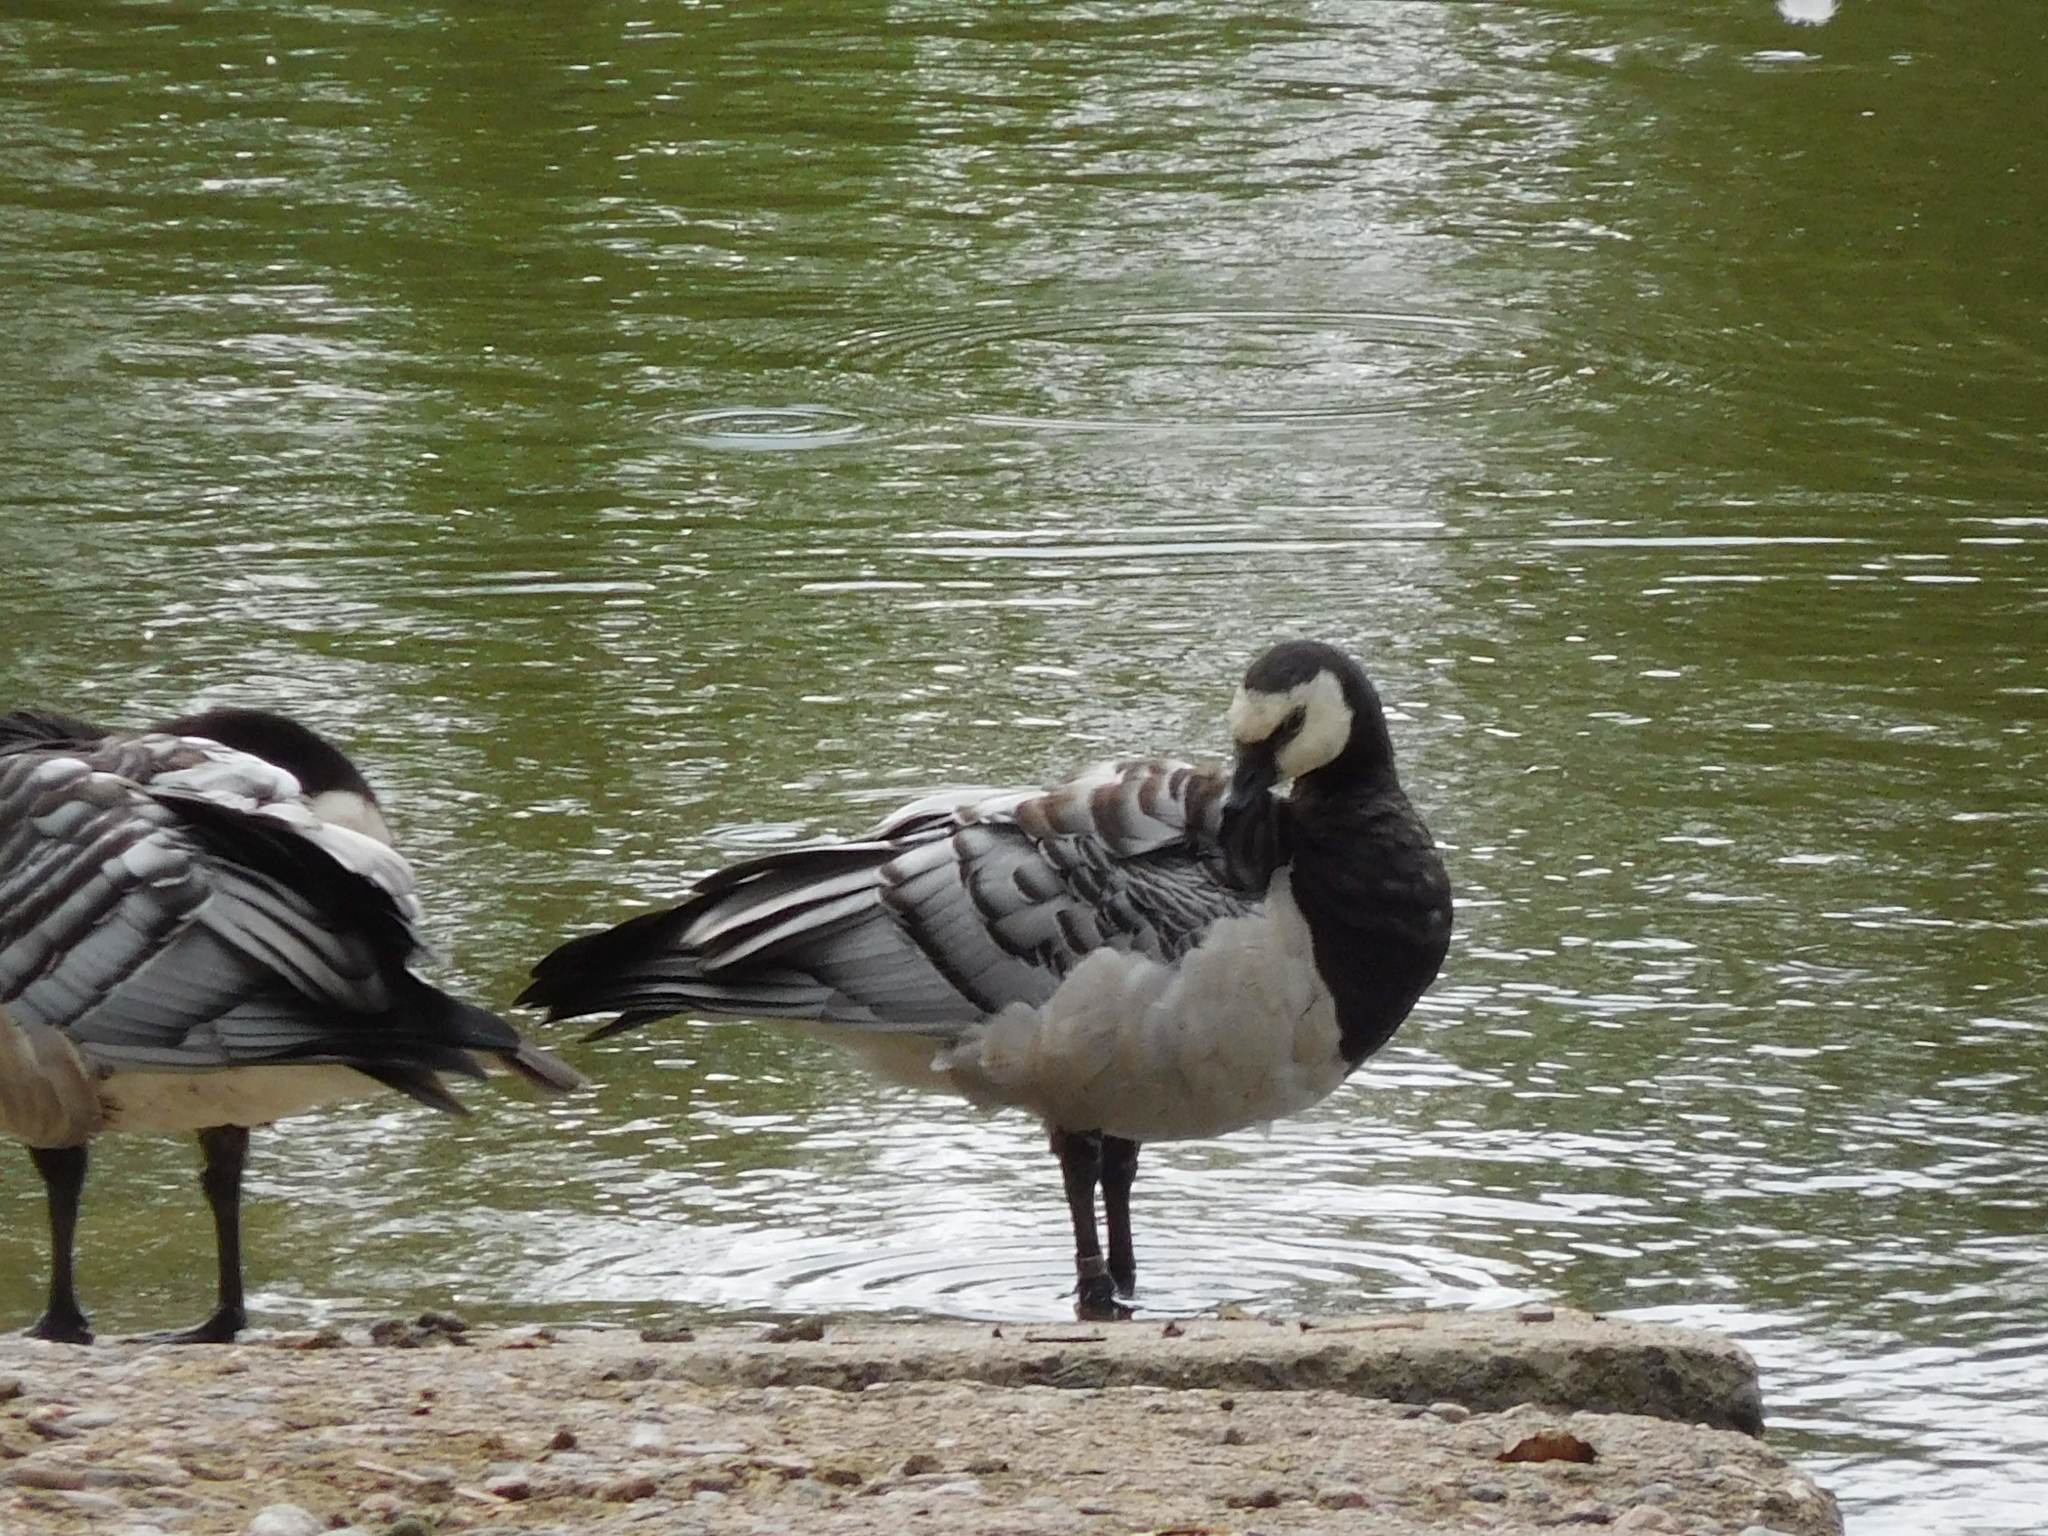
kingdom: Animalia
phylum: Chordata
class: Aves
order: Anseriformes
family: Anatidae
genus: Branta
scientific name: Branta leucopsis
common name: Barnacle goose
